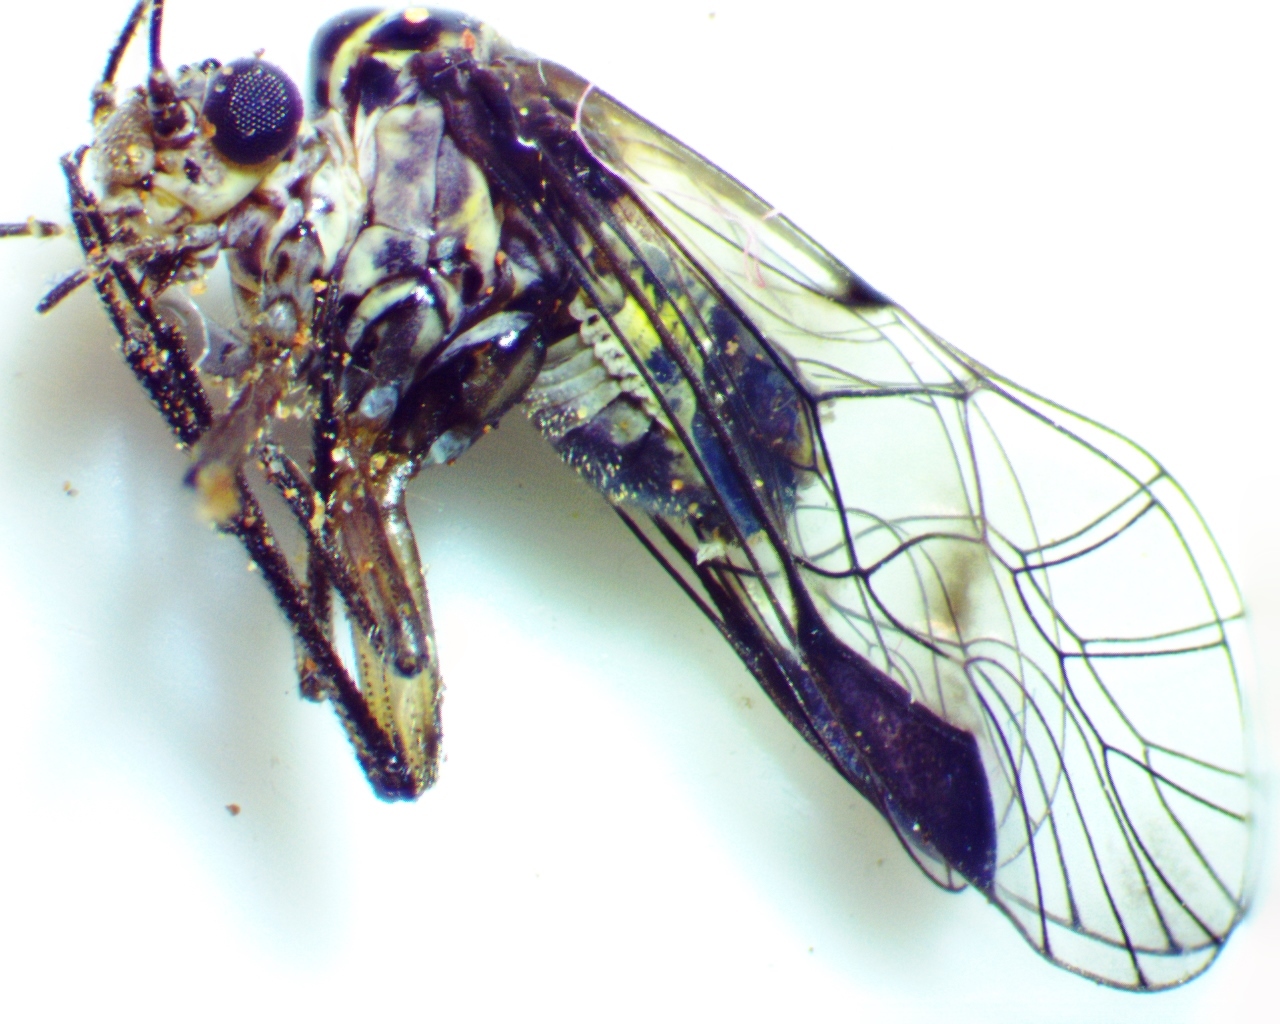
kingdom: Animalia
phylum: Arthropoda
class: Insecta
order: Psocodea
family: Psocidae
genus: Metylophorus
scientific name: Metylophorus novaescotiae
